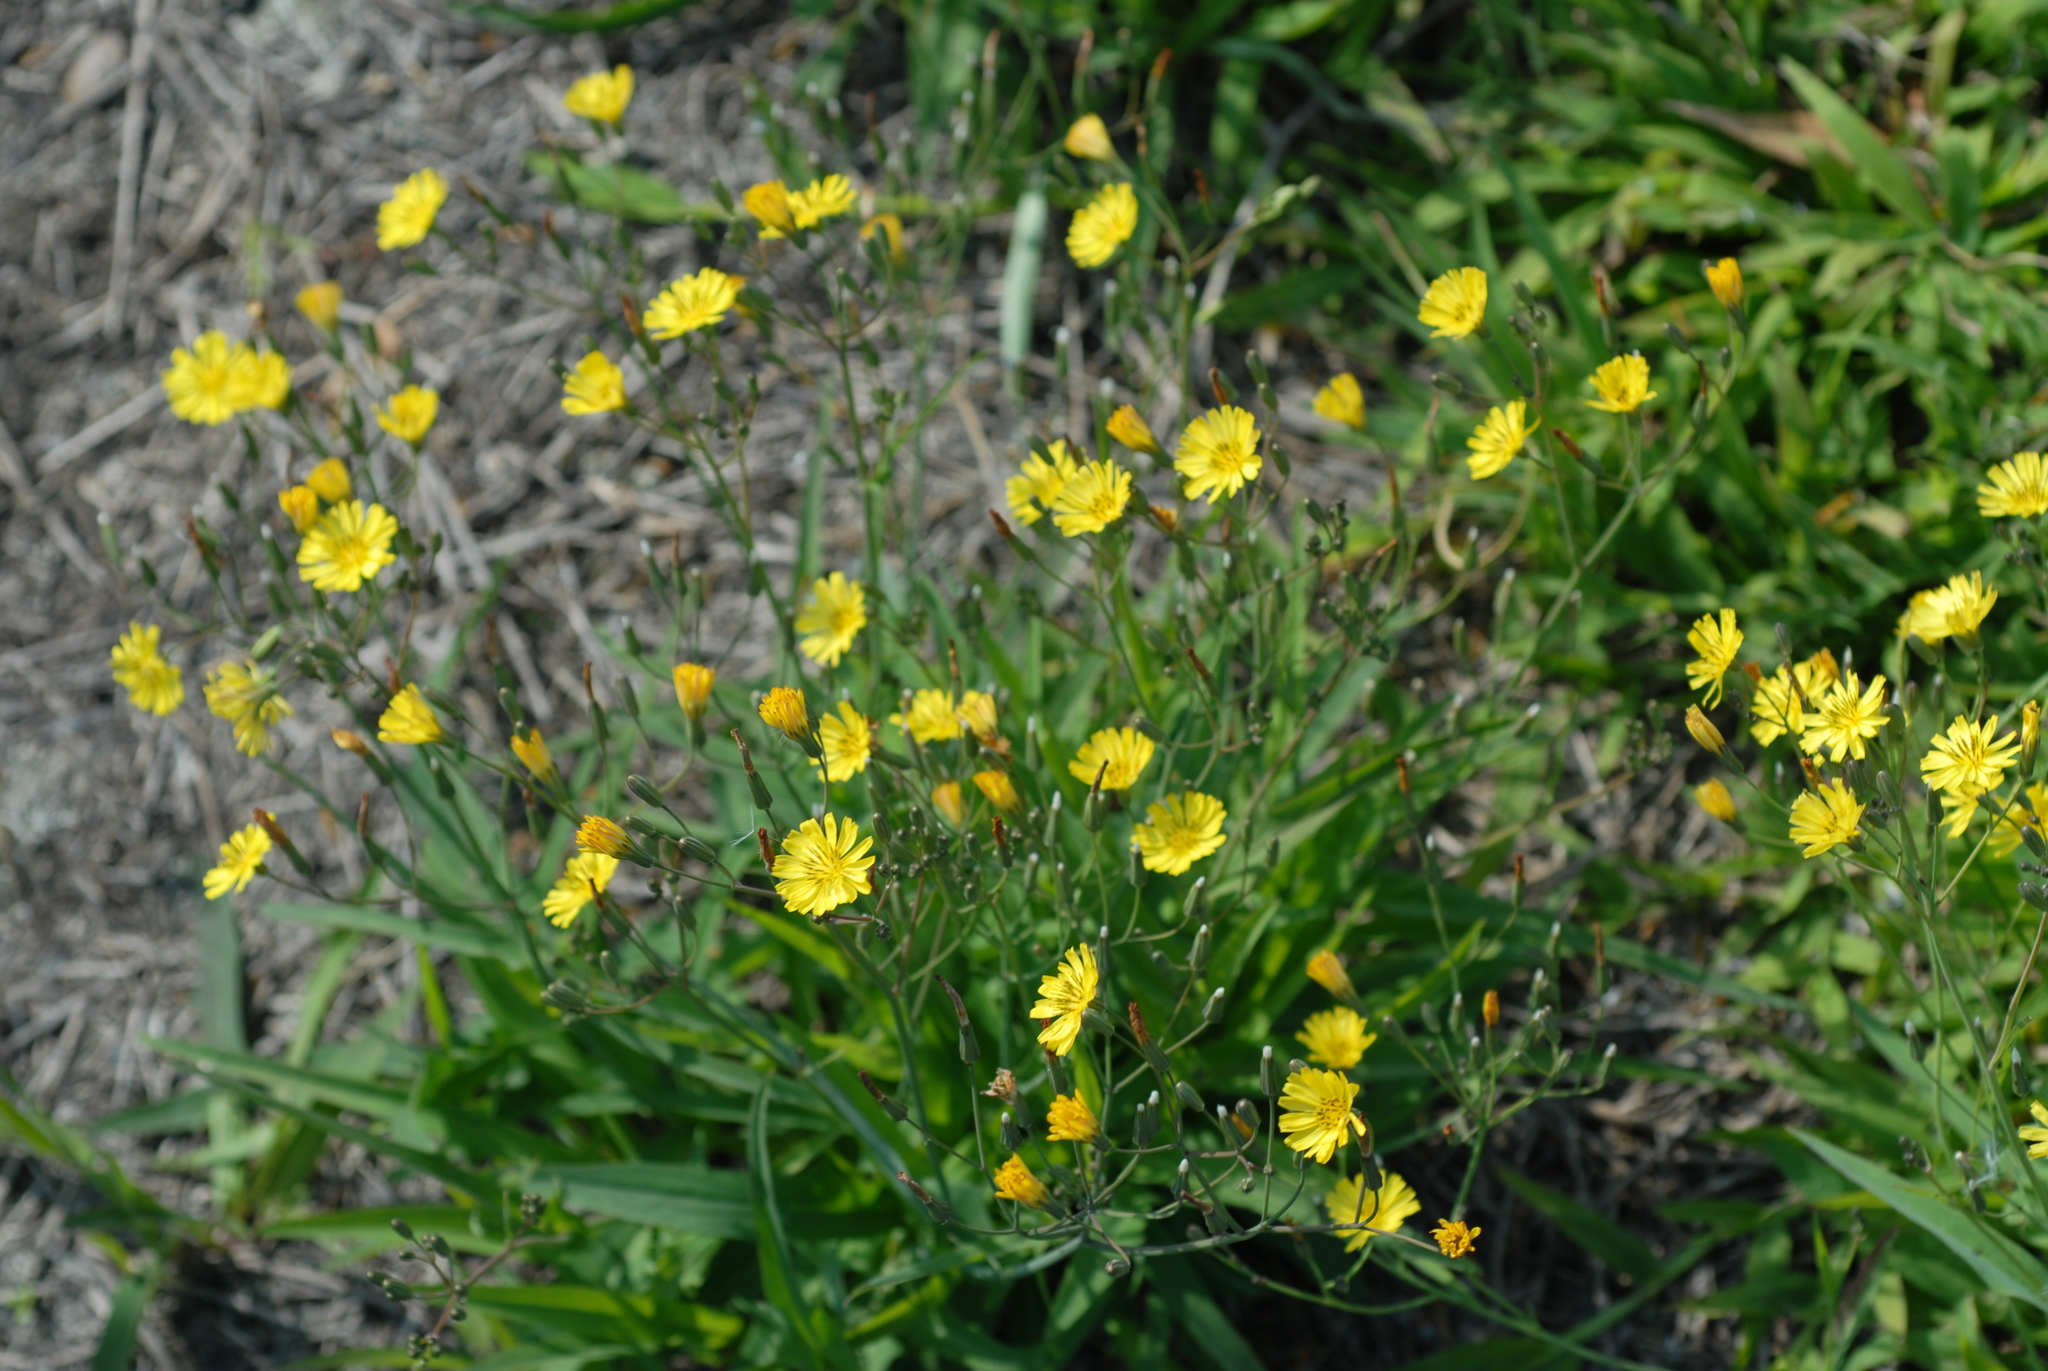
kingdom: Plantae
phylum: Tracheophyta
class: Magnoliopsida
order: Asterales
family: Asteraceae
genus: Ixeris
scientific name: Ixeris chinensis
